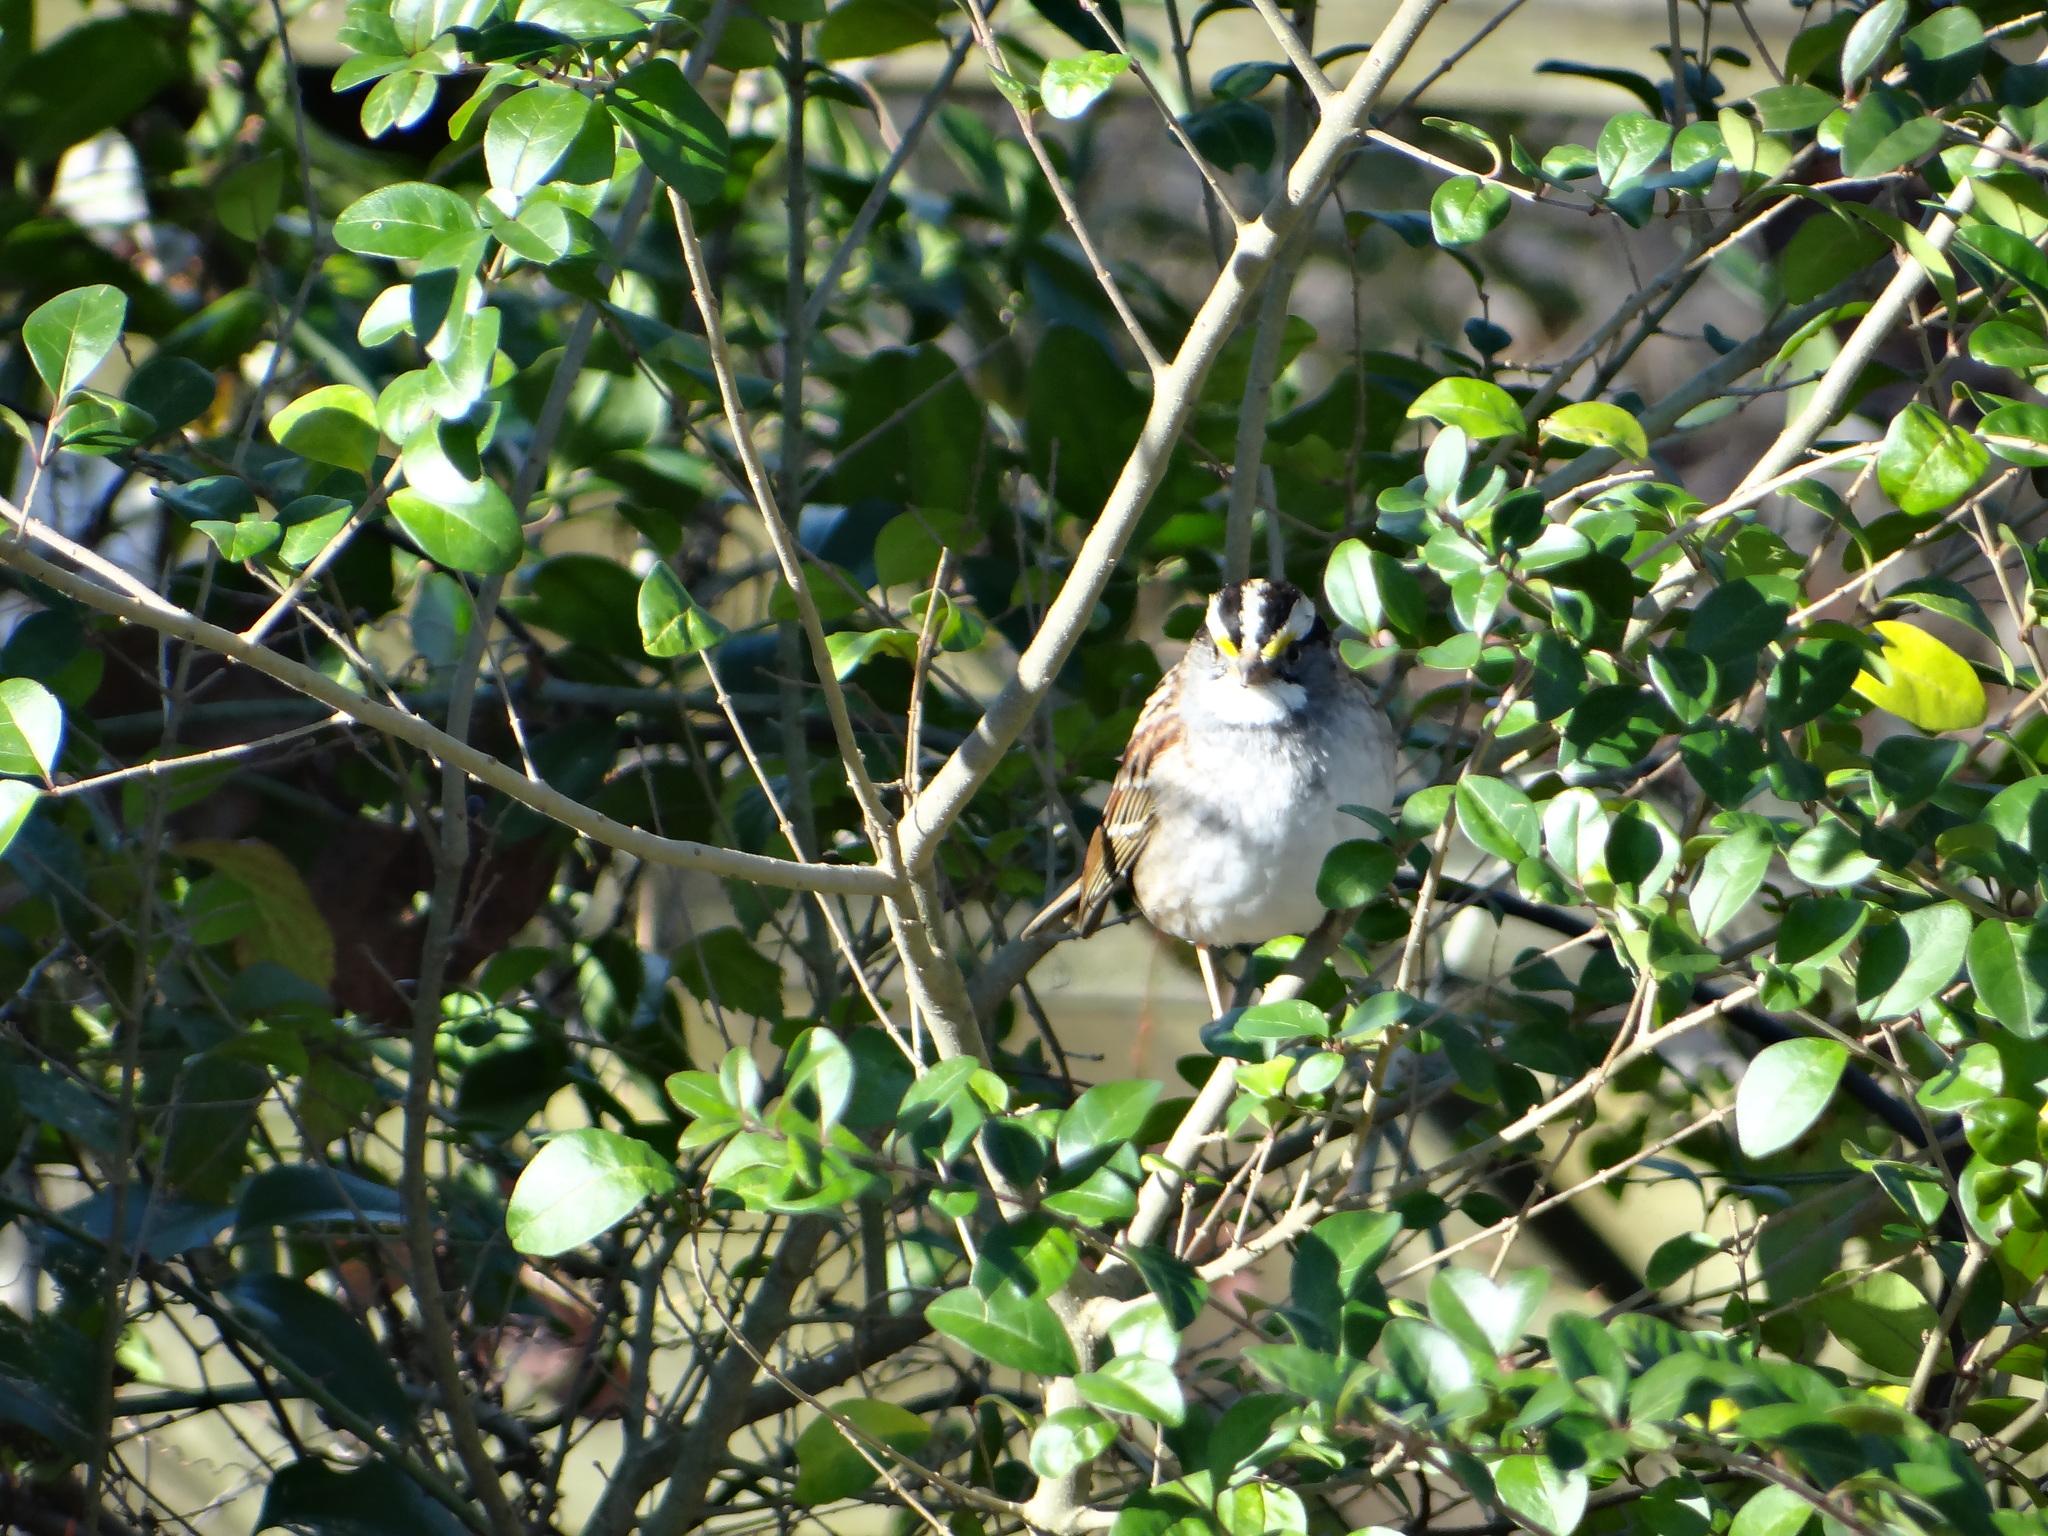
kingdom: Animalia
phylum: Chordata
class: Aves
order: Passeriformes
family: Passerellidae
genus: Zonotrichia
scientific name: Zonotrichia albicollis
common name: White-throated sparrow
